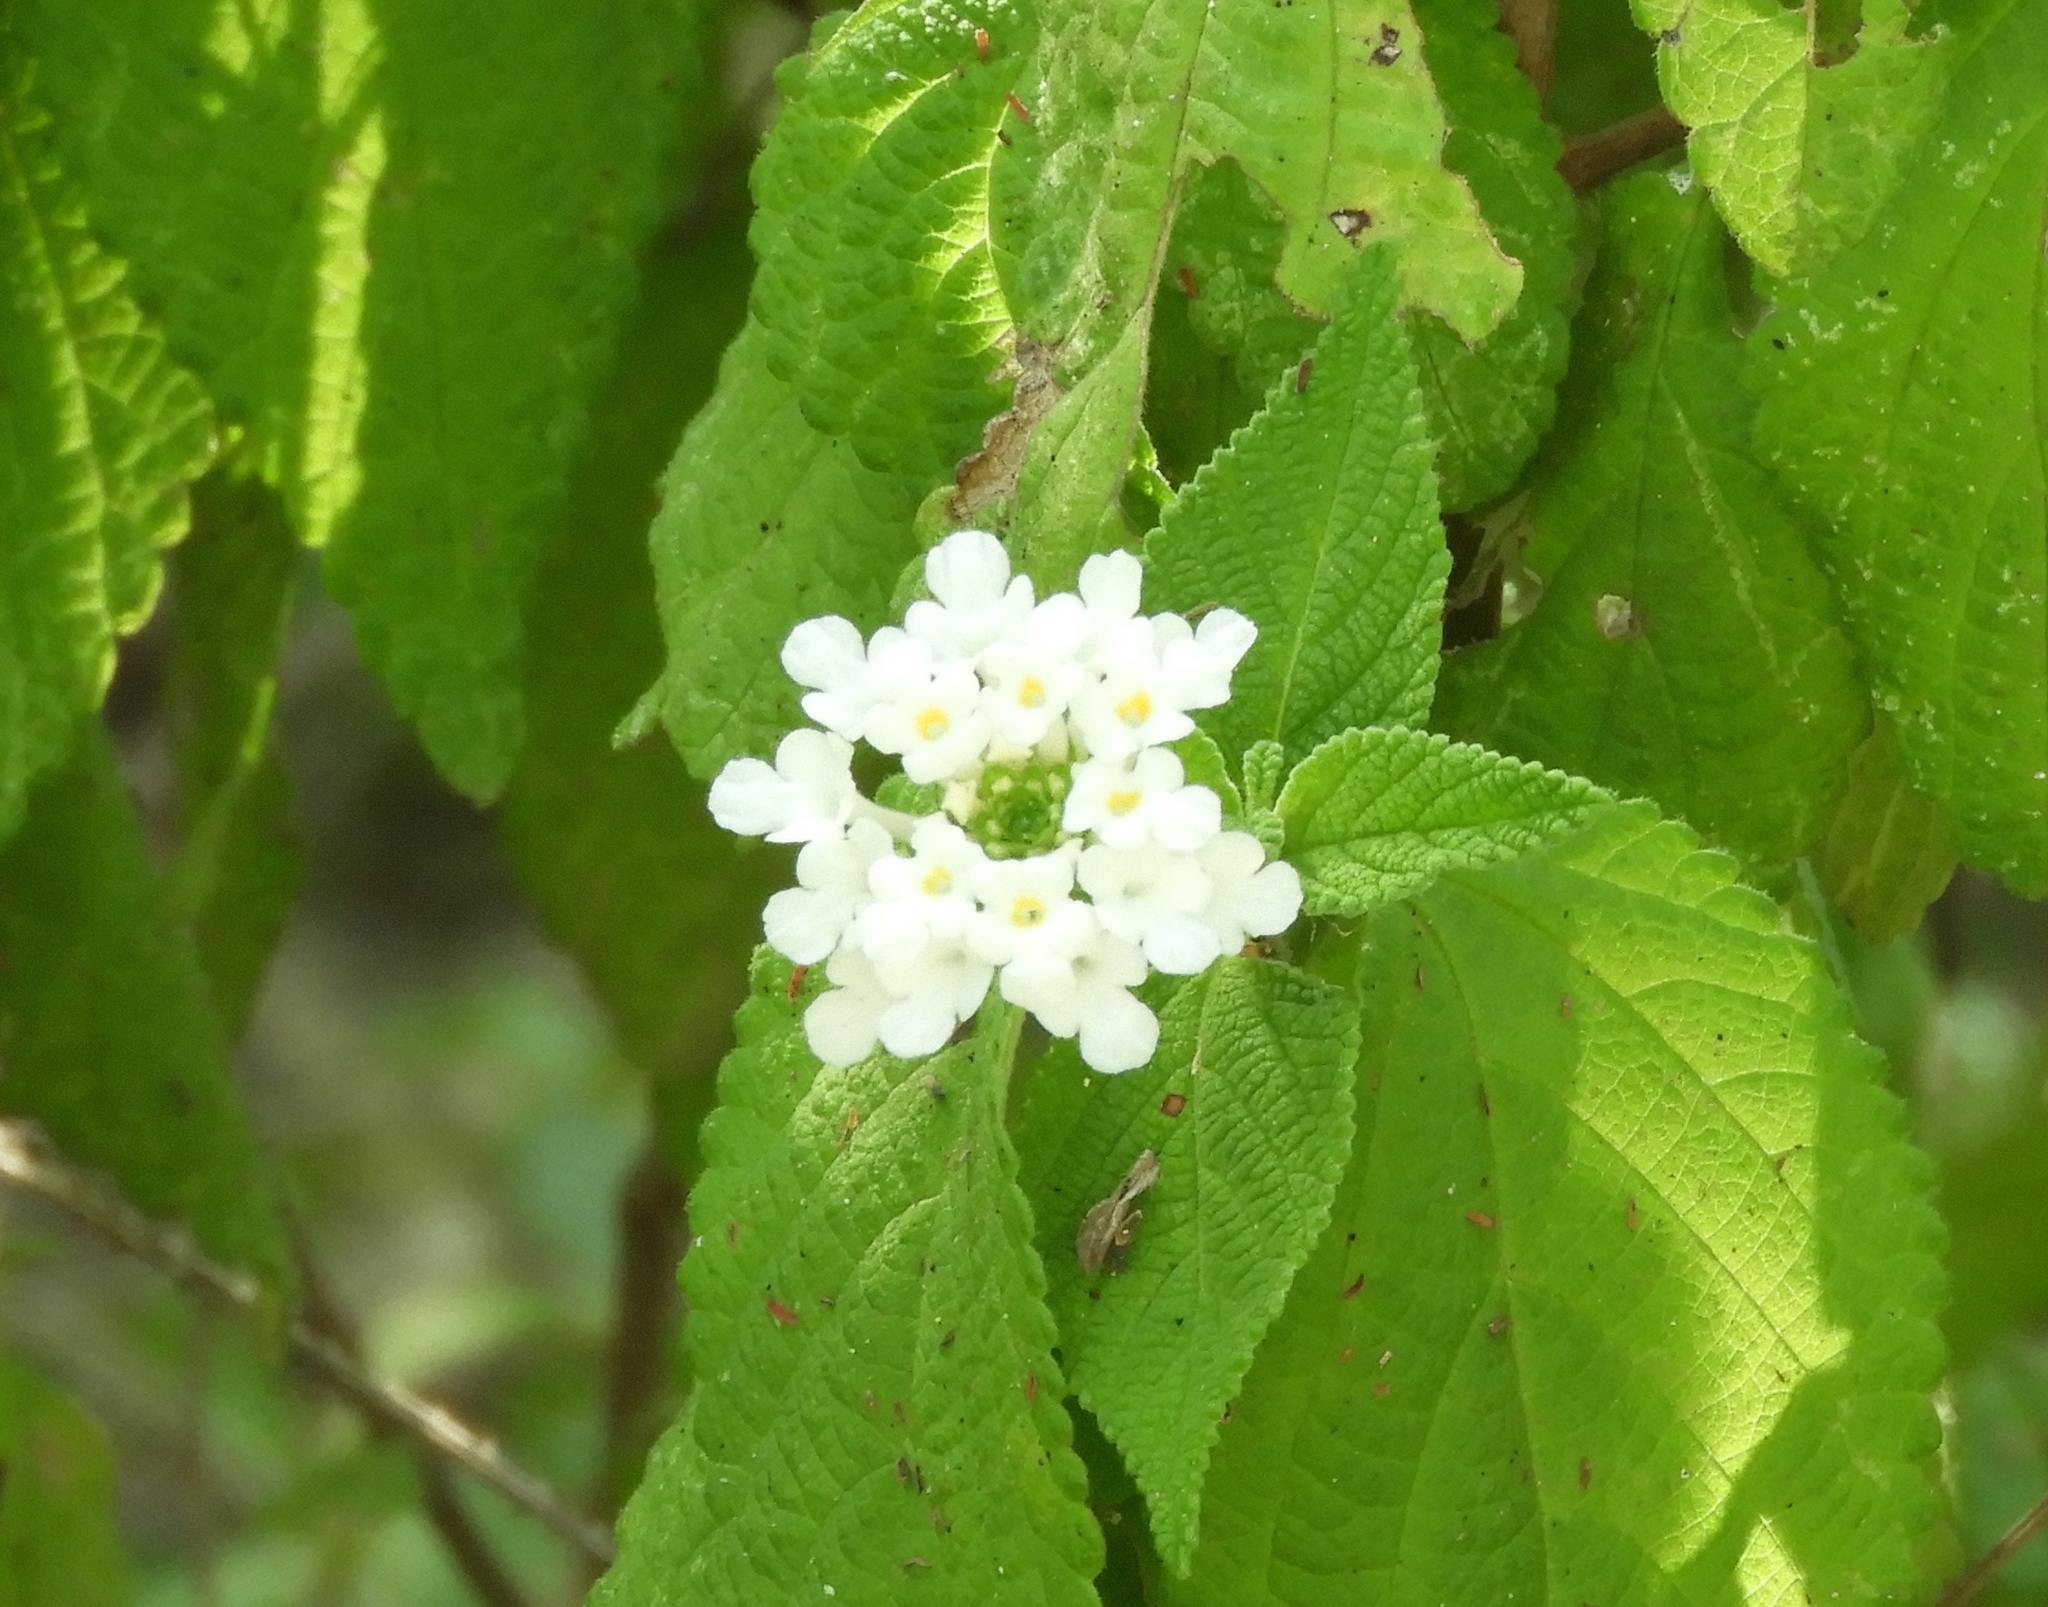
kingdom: Plantae
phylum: Tracheophyta
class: Magnoliopsida
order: Lamiales
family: Verbenaceae
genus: Lantana
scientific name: Lantana velutina
